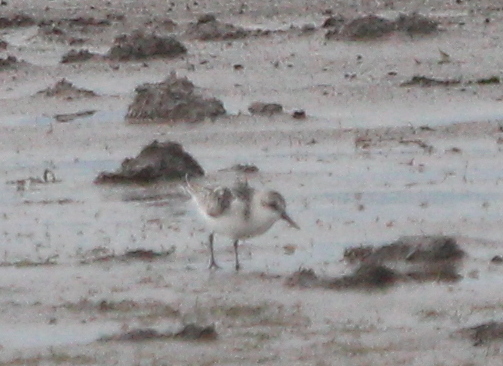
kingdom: Animalia
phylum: Chordata
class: Aves
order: Charadriiformes
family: Scolopacidae
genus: Calidris
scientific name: Calidris alba
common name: Sanderling
